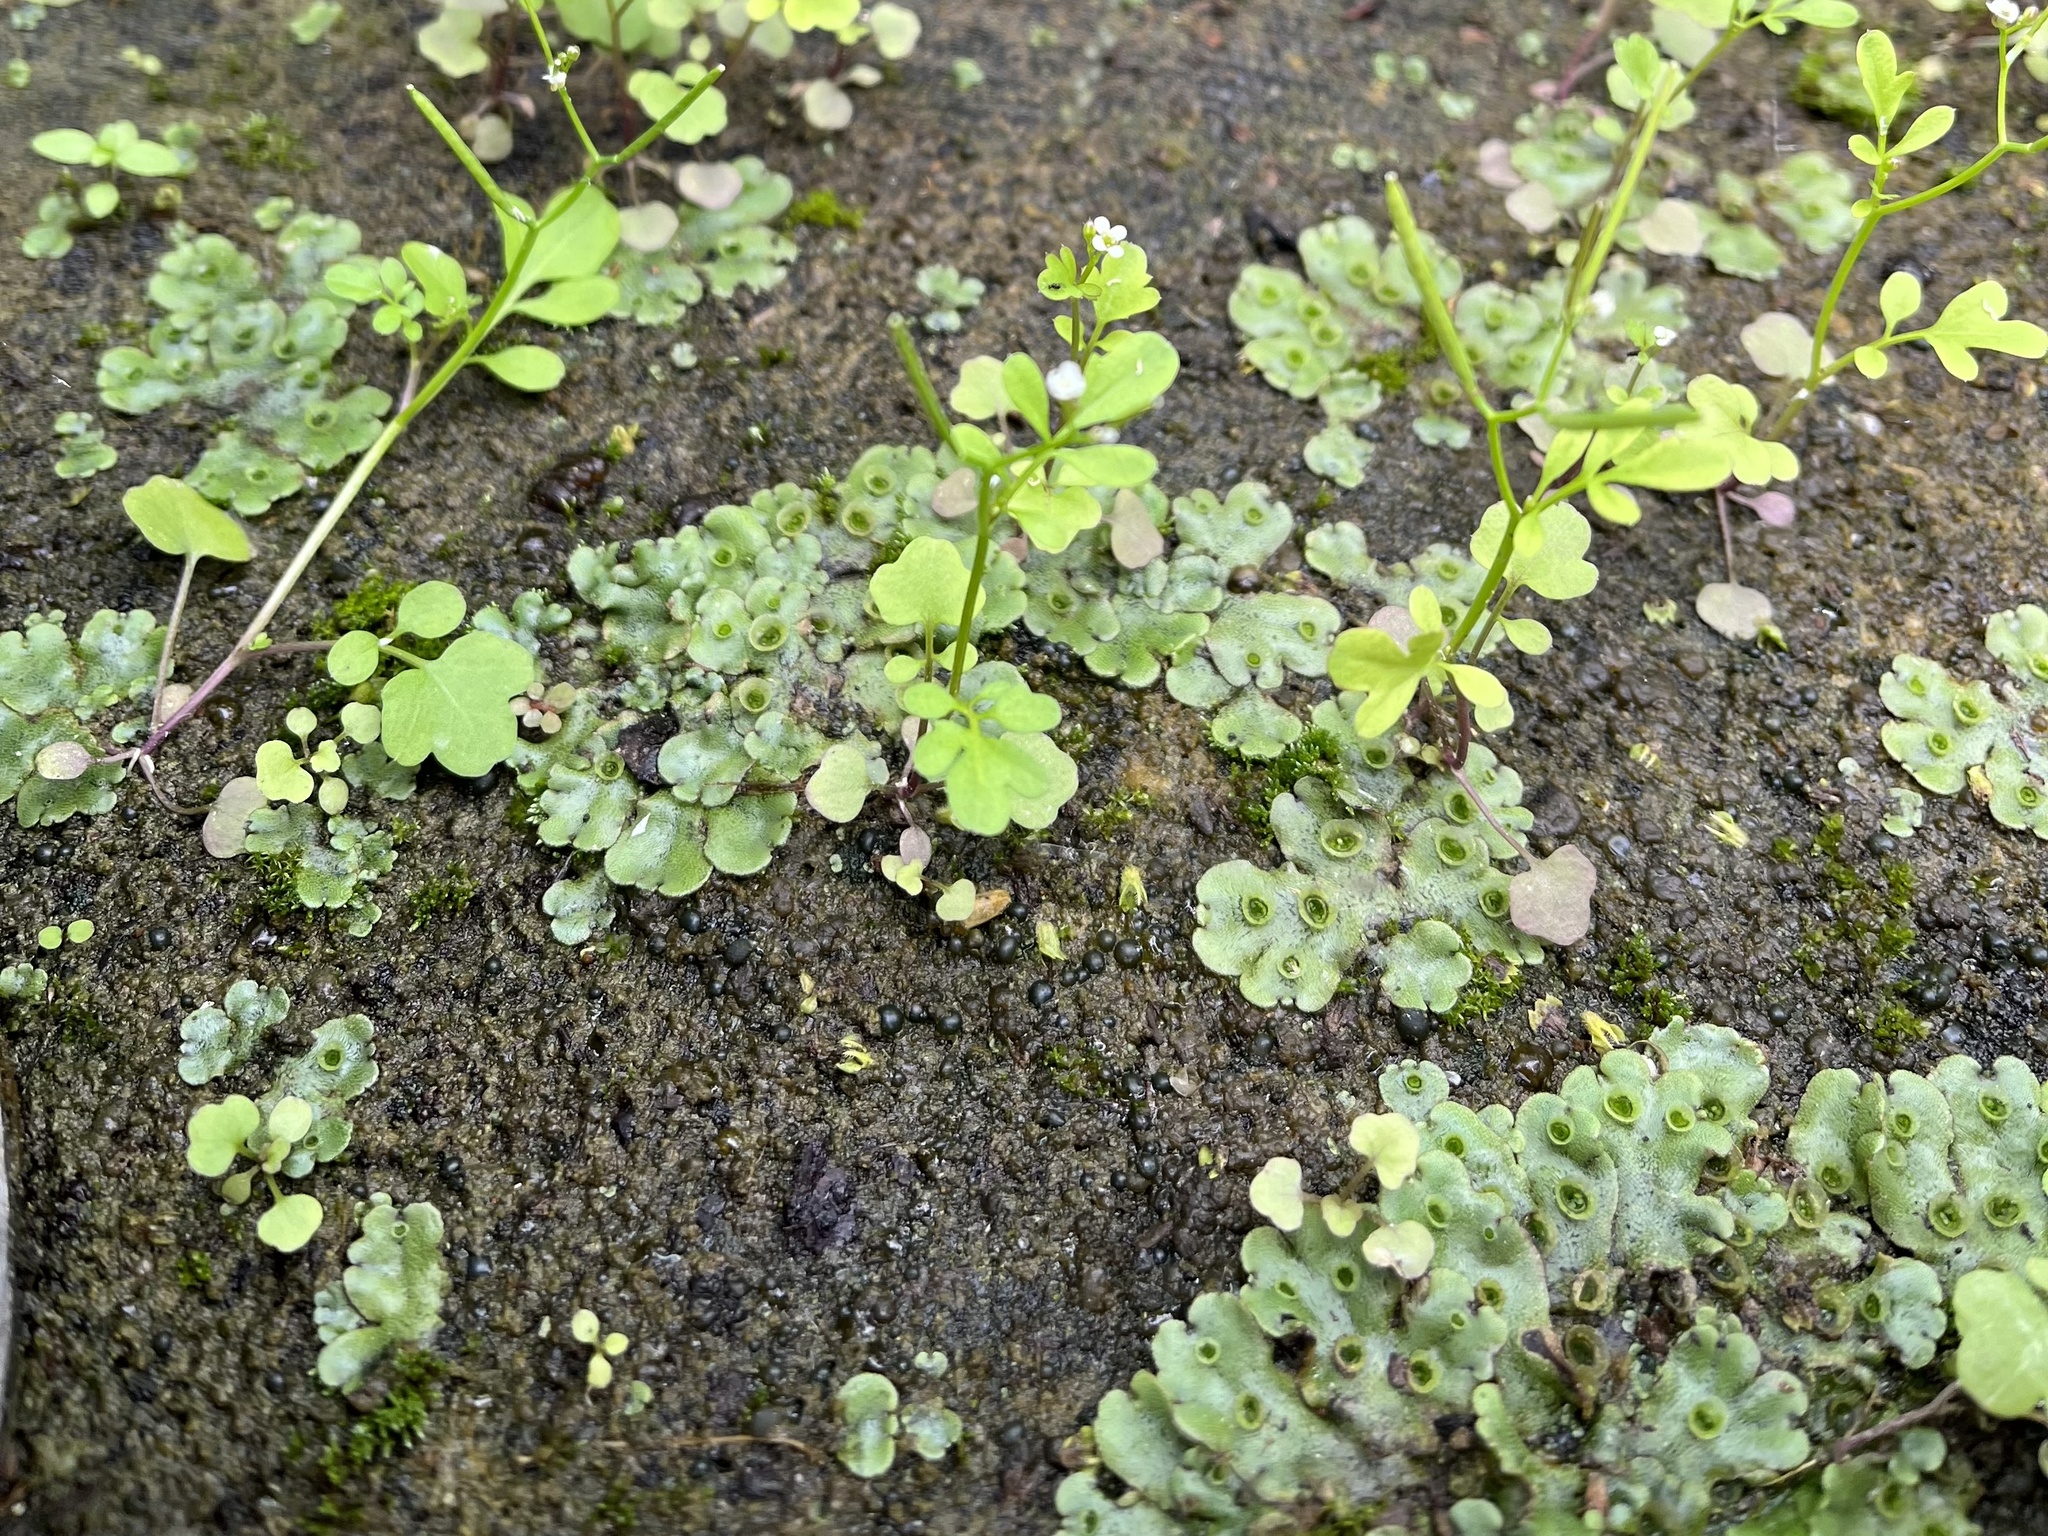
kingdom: Plantae
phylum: Marchantiophyta
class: Marchantiopsida
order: Marchantiales
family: Marchantiaceae
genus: Marchantia
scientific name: Marchantia polymorpha
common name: Common liverwort
